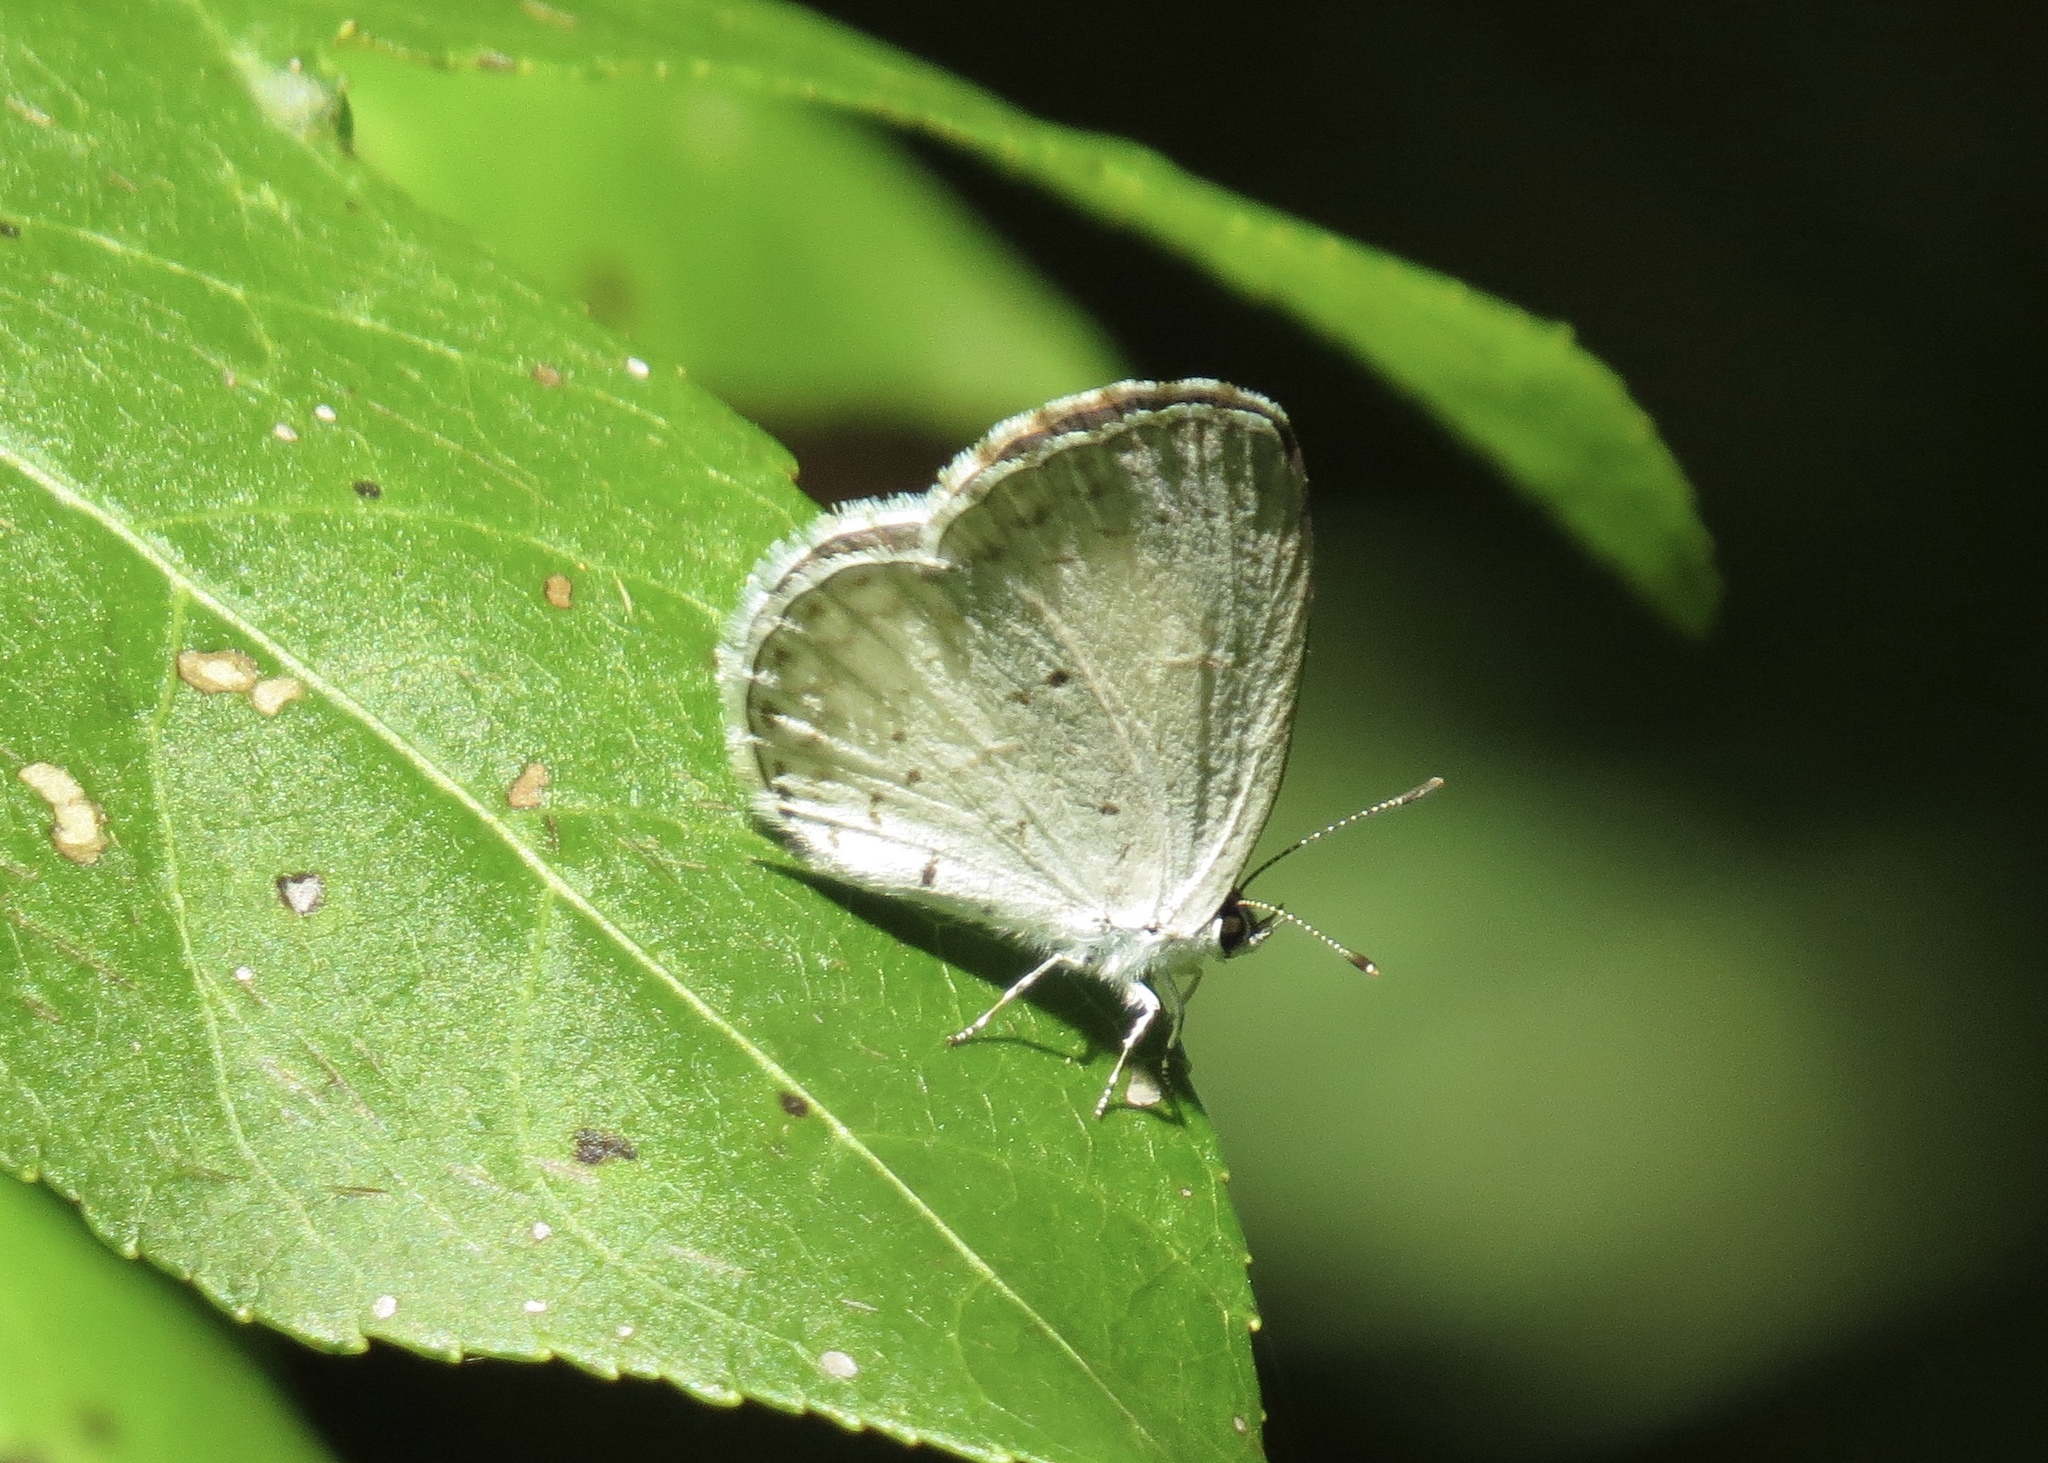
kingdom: Animalia
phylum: Arthropoda
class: Insecta
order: Lepidoptera
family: Lycaenidae
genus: Cyaniris
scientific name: Cyaniris neglecta
